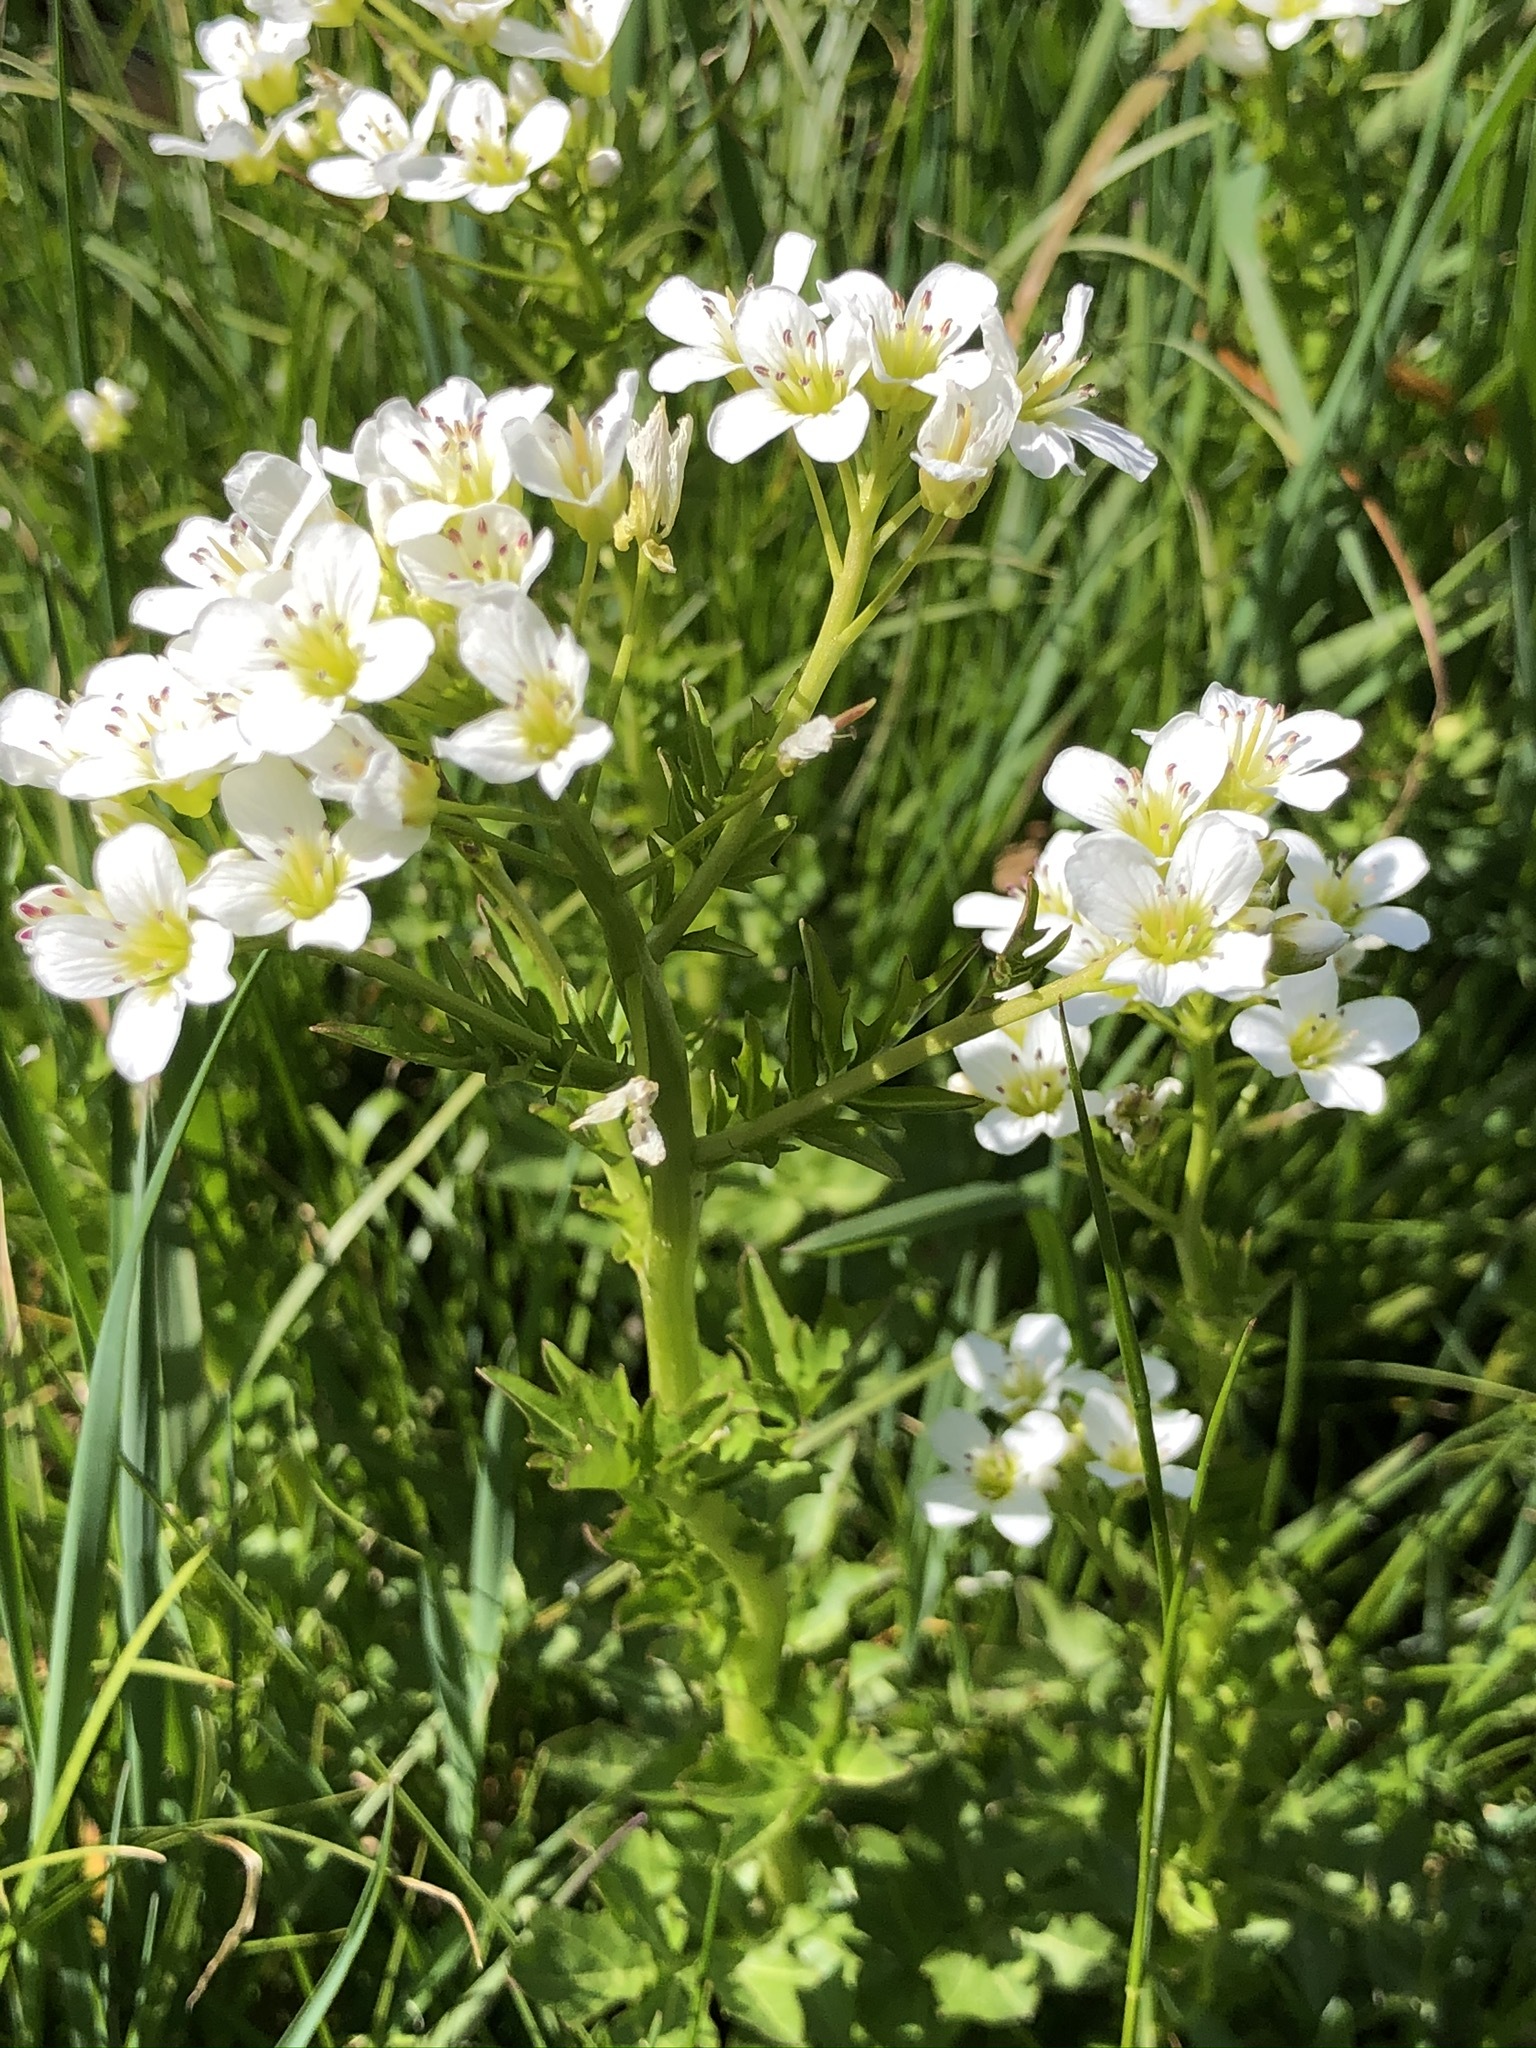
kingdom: Plantae
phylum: Tracheophyta
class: Magnoliopsida
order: Brassicales
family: Brassicaceae
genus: Cardamine
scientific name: Cardamine amara
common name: Large bitter-cress
